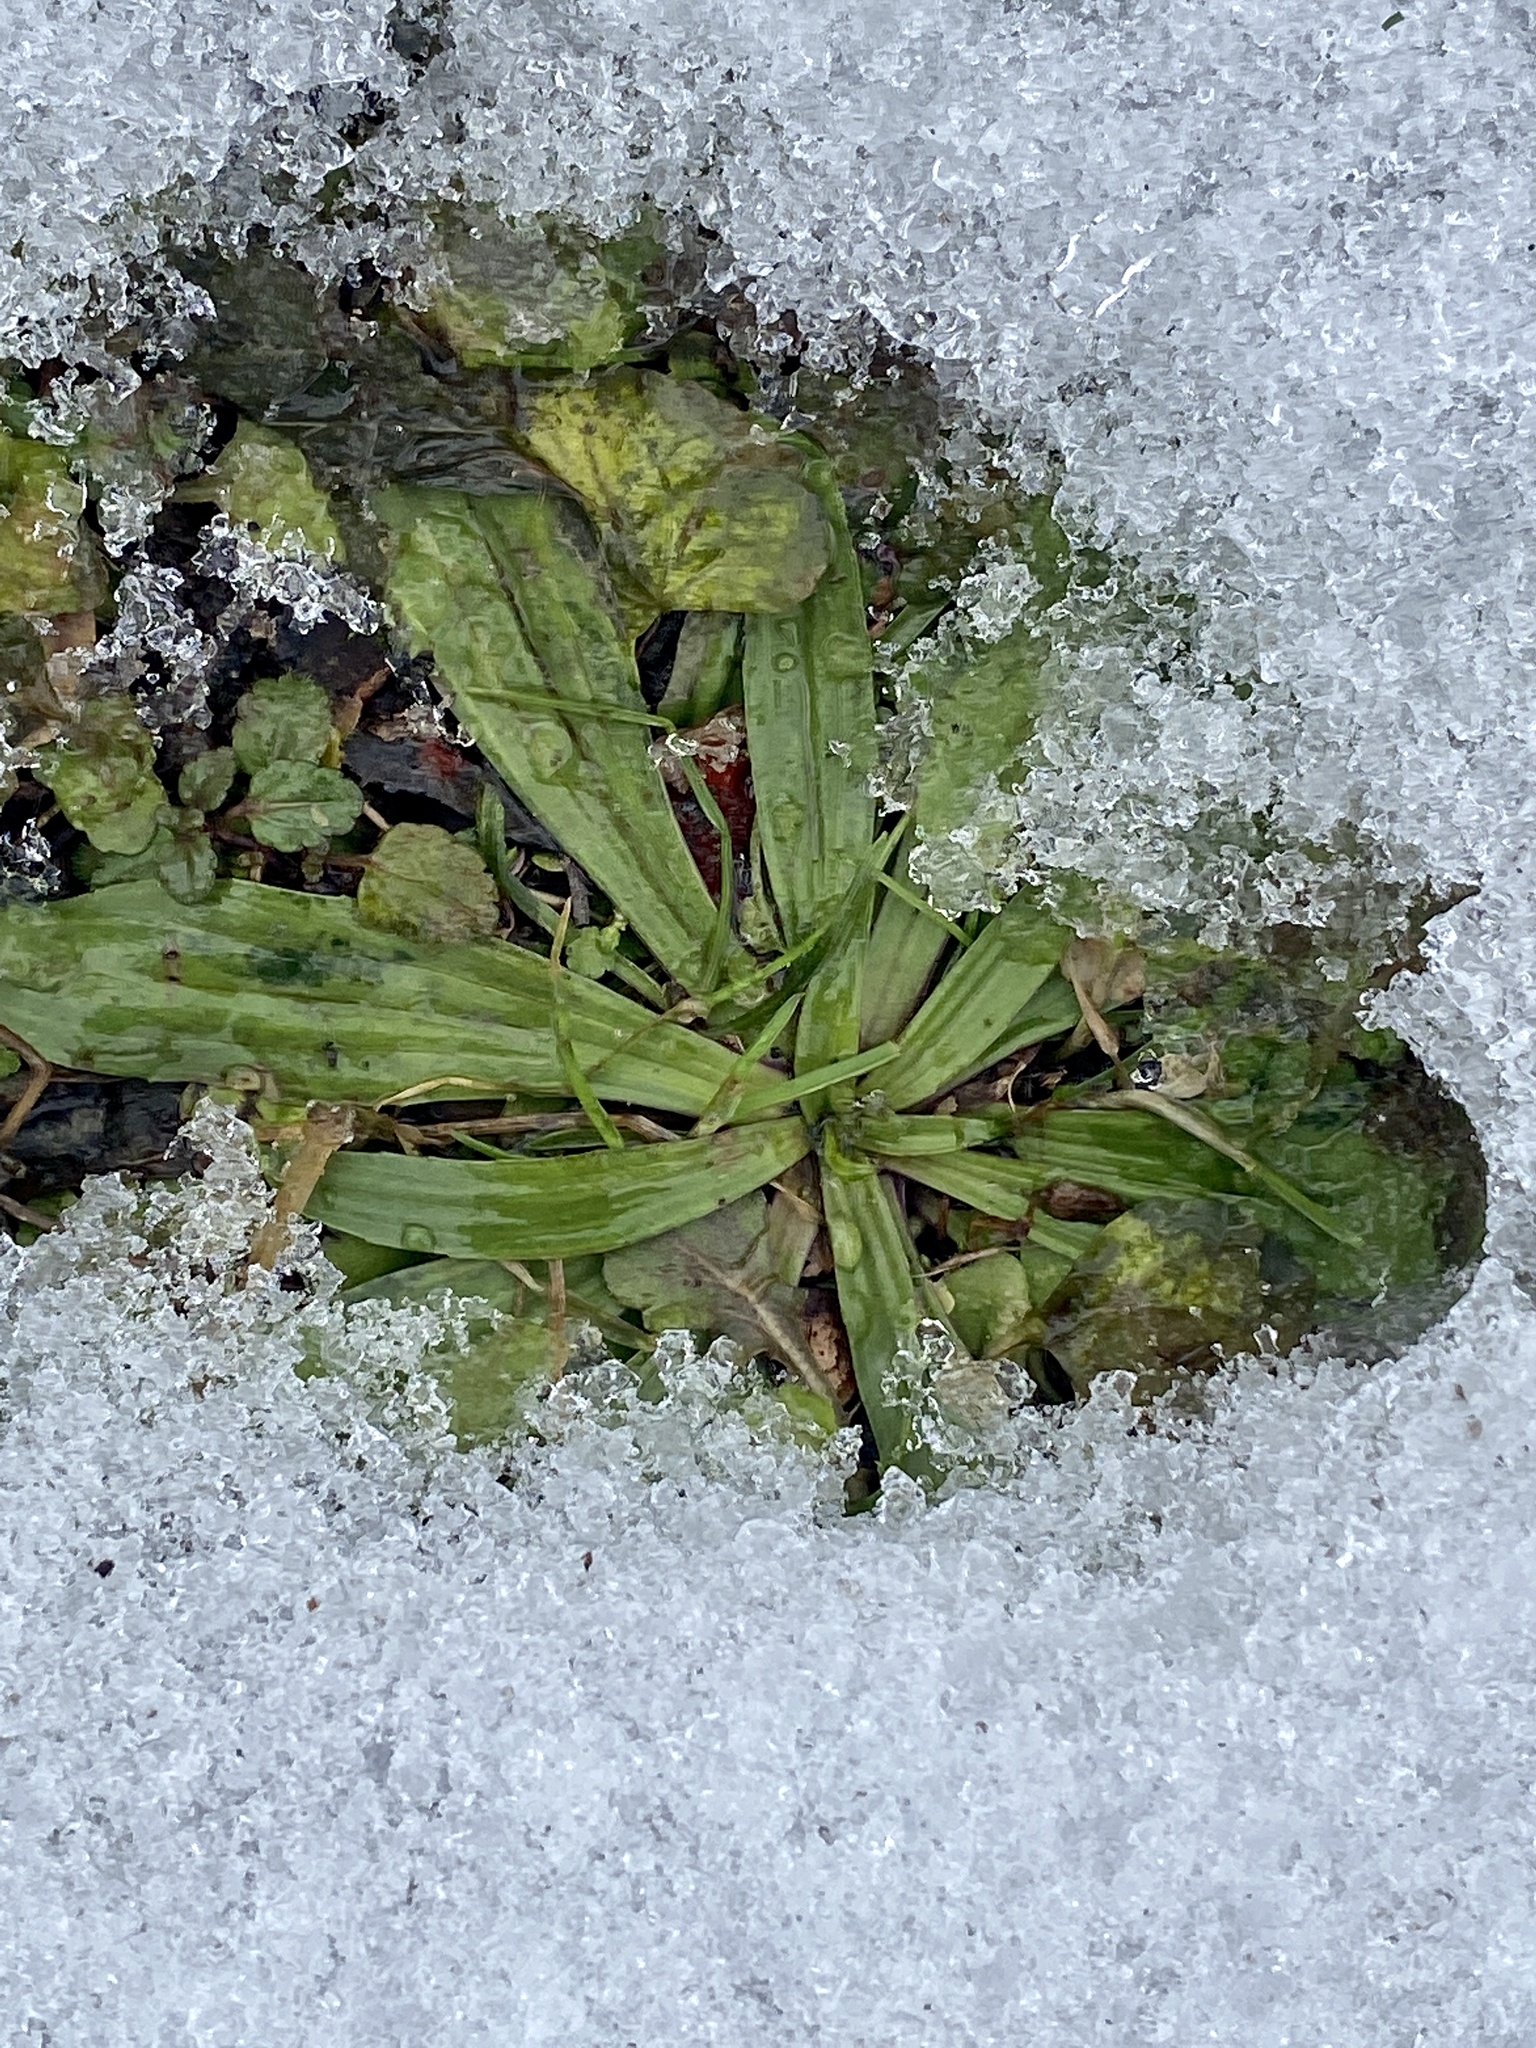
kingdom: Plantae
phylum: Tracheophyta
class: Magnoliopsida
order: Lamiales
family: Plantaginaceae
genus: Plantago
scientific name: Plantago lanceolata
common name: Ribwort plantain
